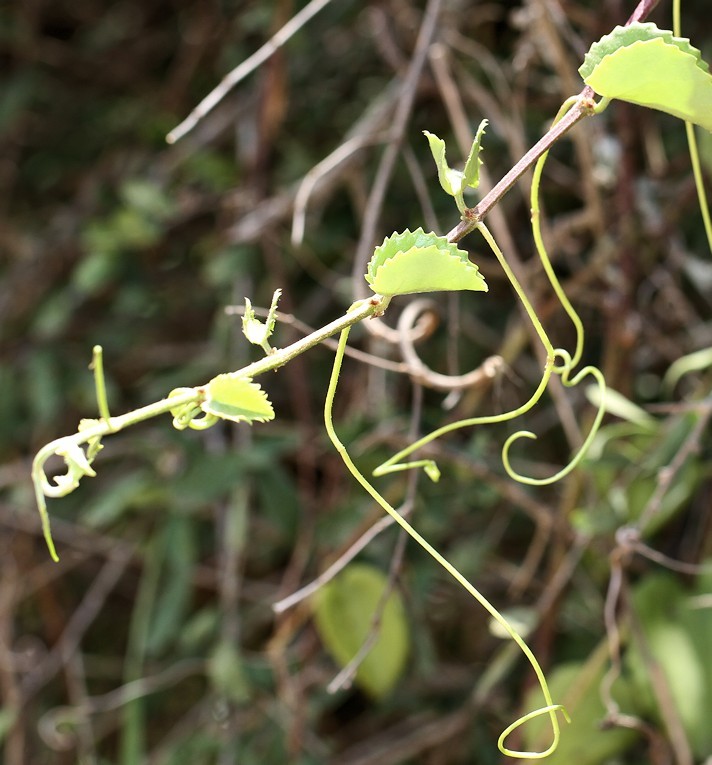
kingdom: Plantae
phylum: Tracheophyta
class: Magnoliopsida
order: Vitales
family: Vitaceae
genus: Cissus
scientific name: Cissus rotundifolia
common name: Arabian wax cissus
